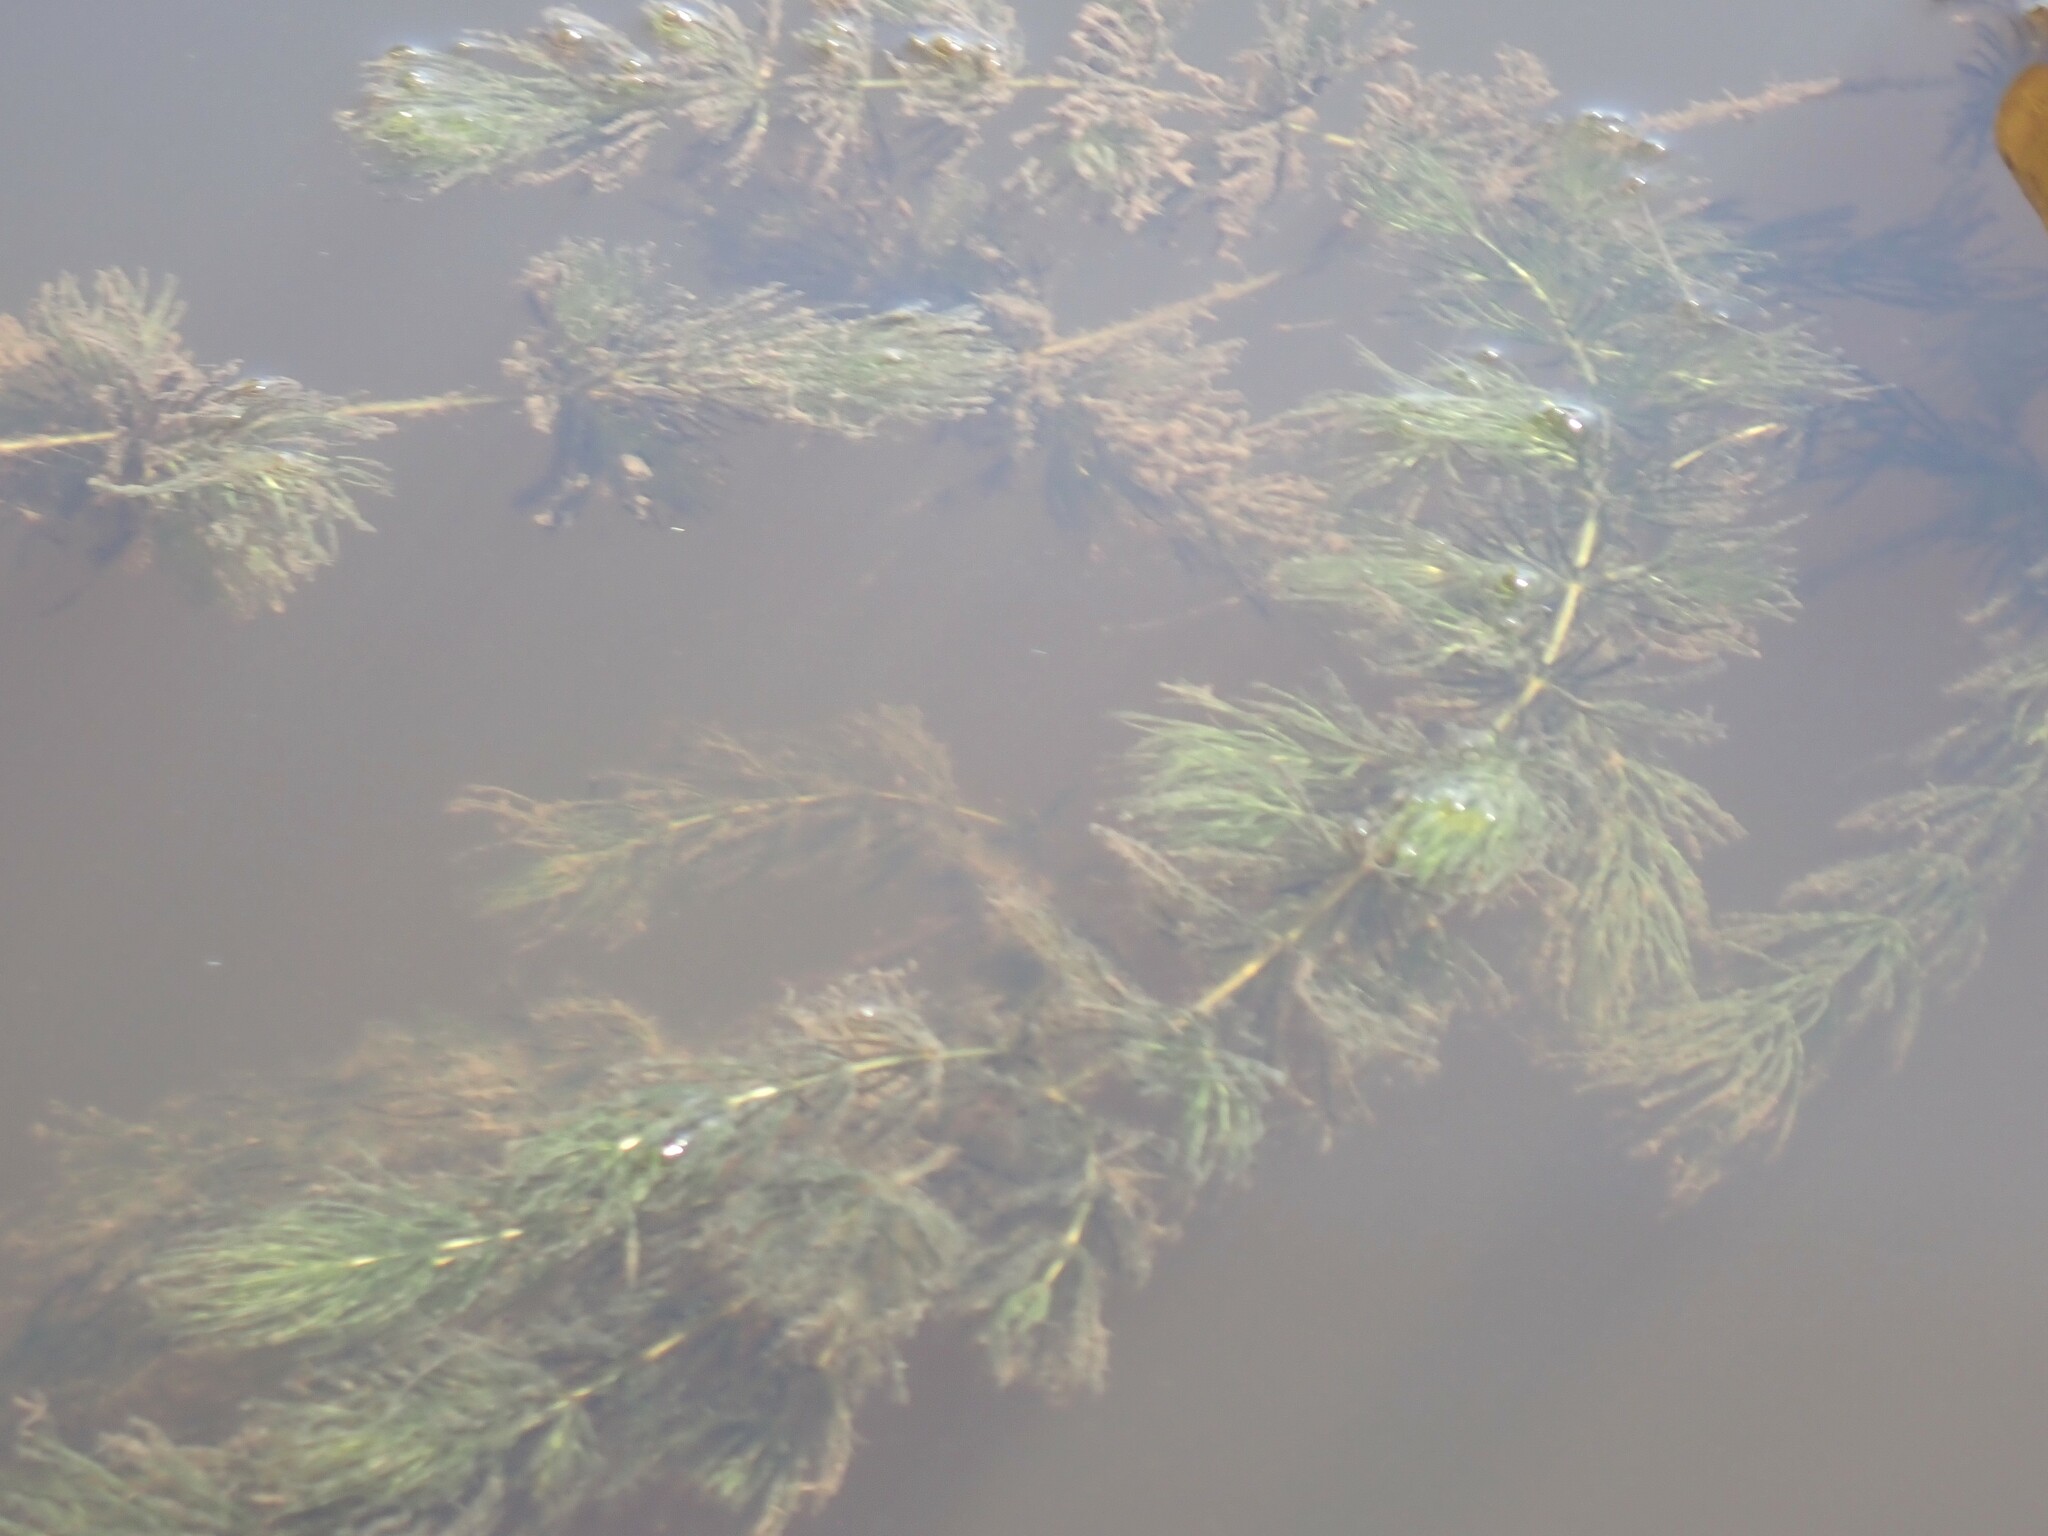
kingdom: Plantae
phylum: Tracheophyta
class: Magnoliopsida
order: Ceratophyllales
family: Ceratophyllaceae
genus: Ceratophyllum
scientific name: Ceratophyllum demersum
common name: Rigid hornwort
